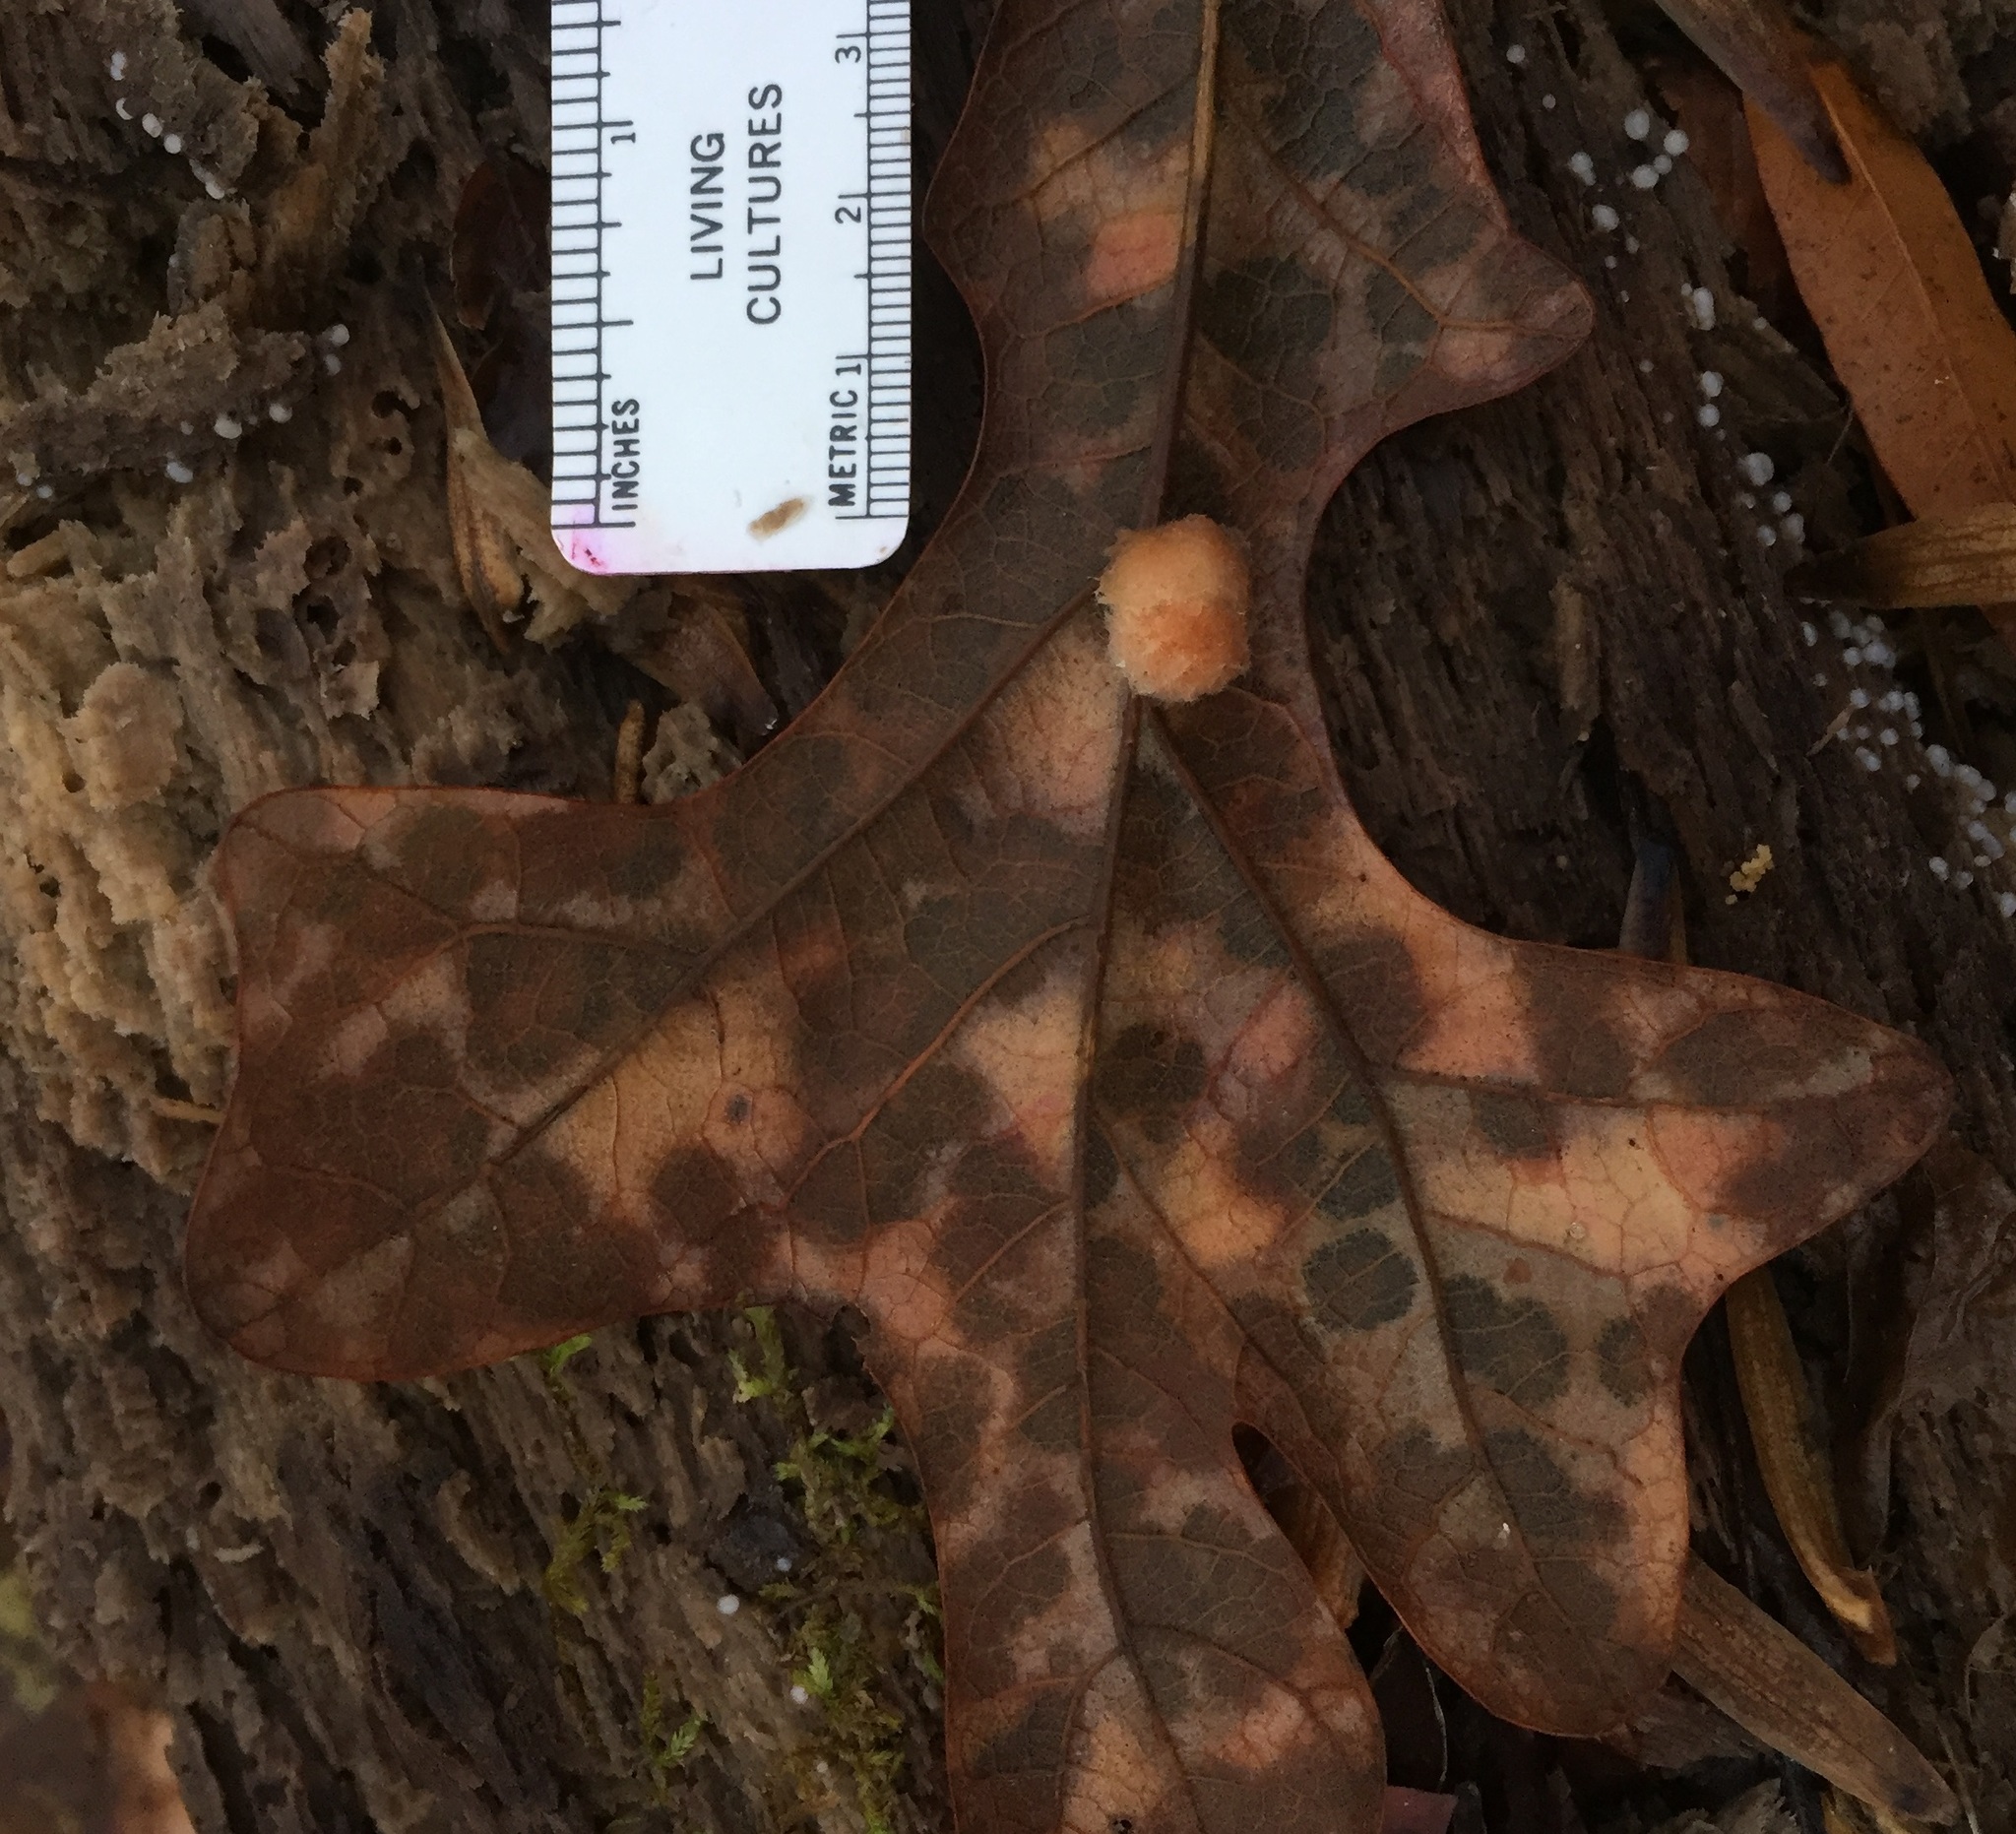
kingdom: Animalia
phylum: Arthropoda
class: Insecta
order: Hymenoptera
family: Cynipidae
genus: Andricus
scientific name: Andricus Druon pattoni
